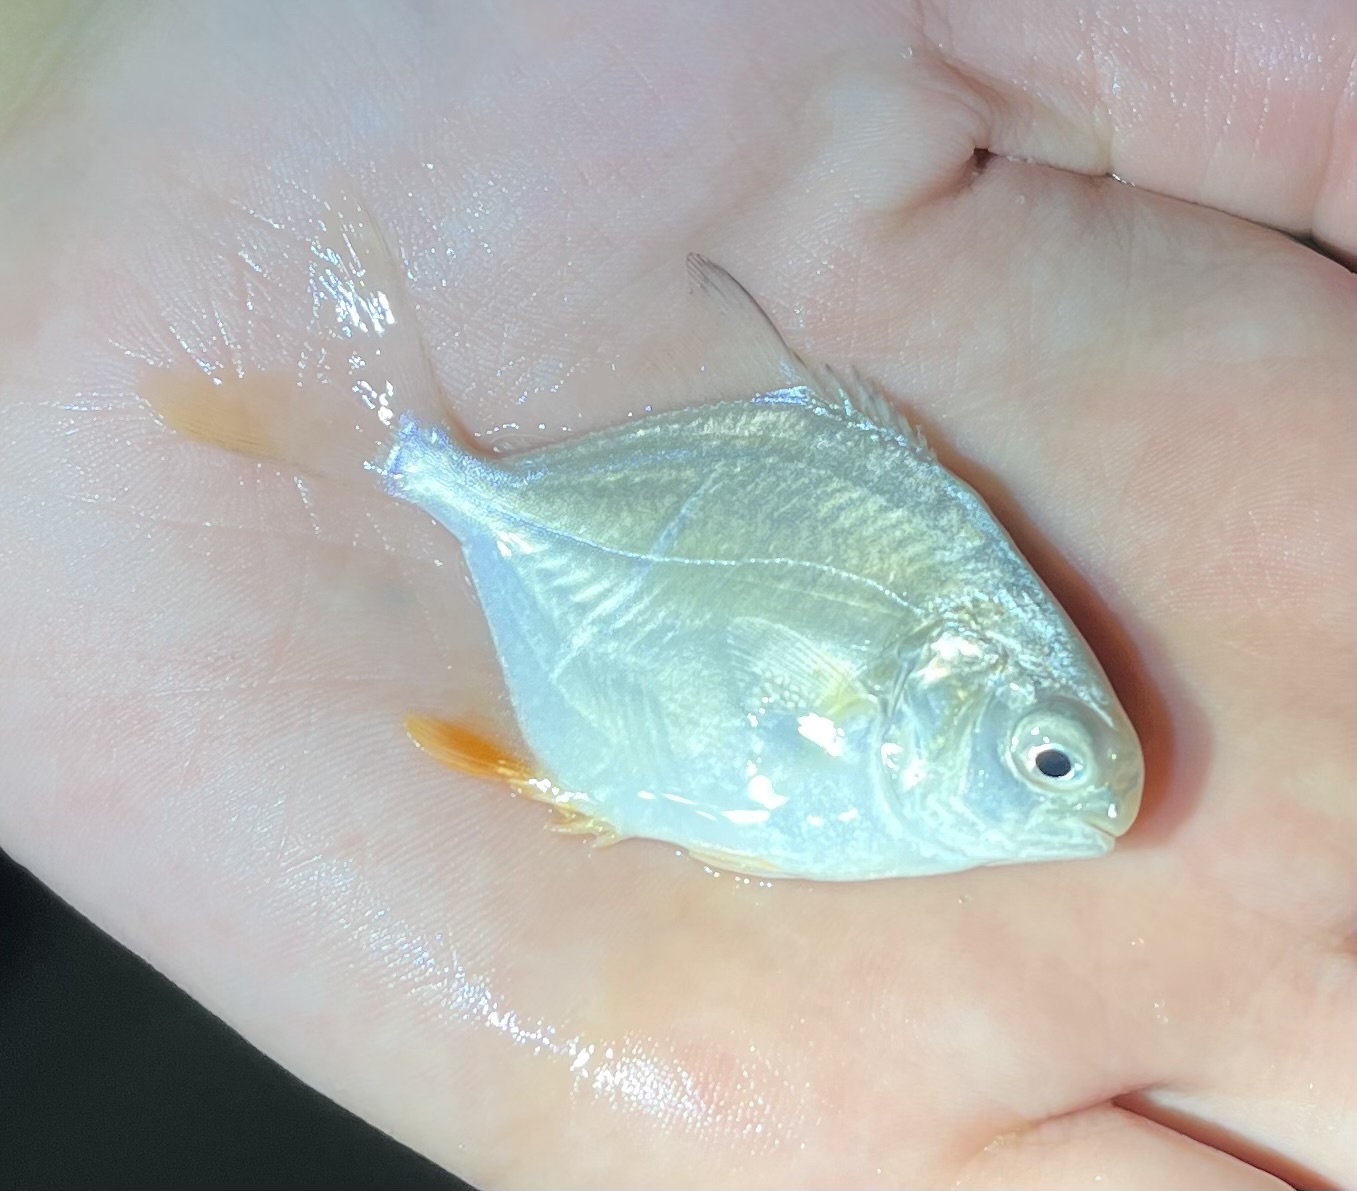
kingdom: Animalia
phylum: Chordata
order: Perciformes
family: Carangidae
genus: Trachinotus
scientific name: Trachinotus falcatus
